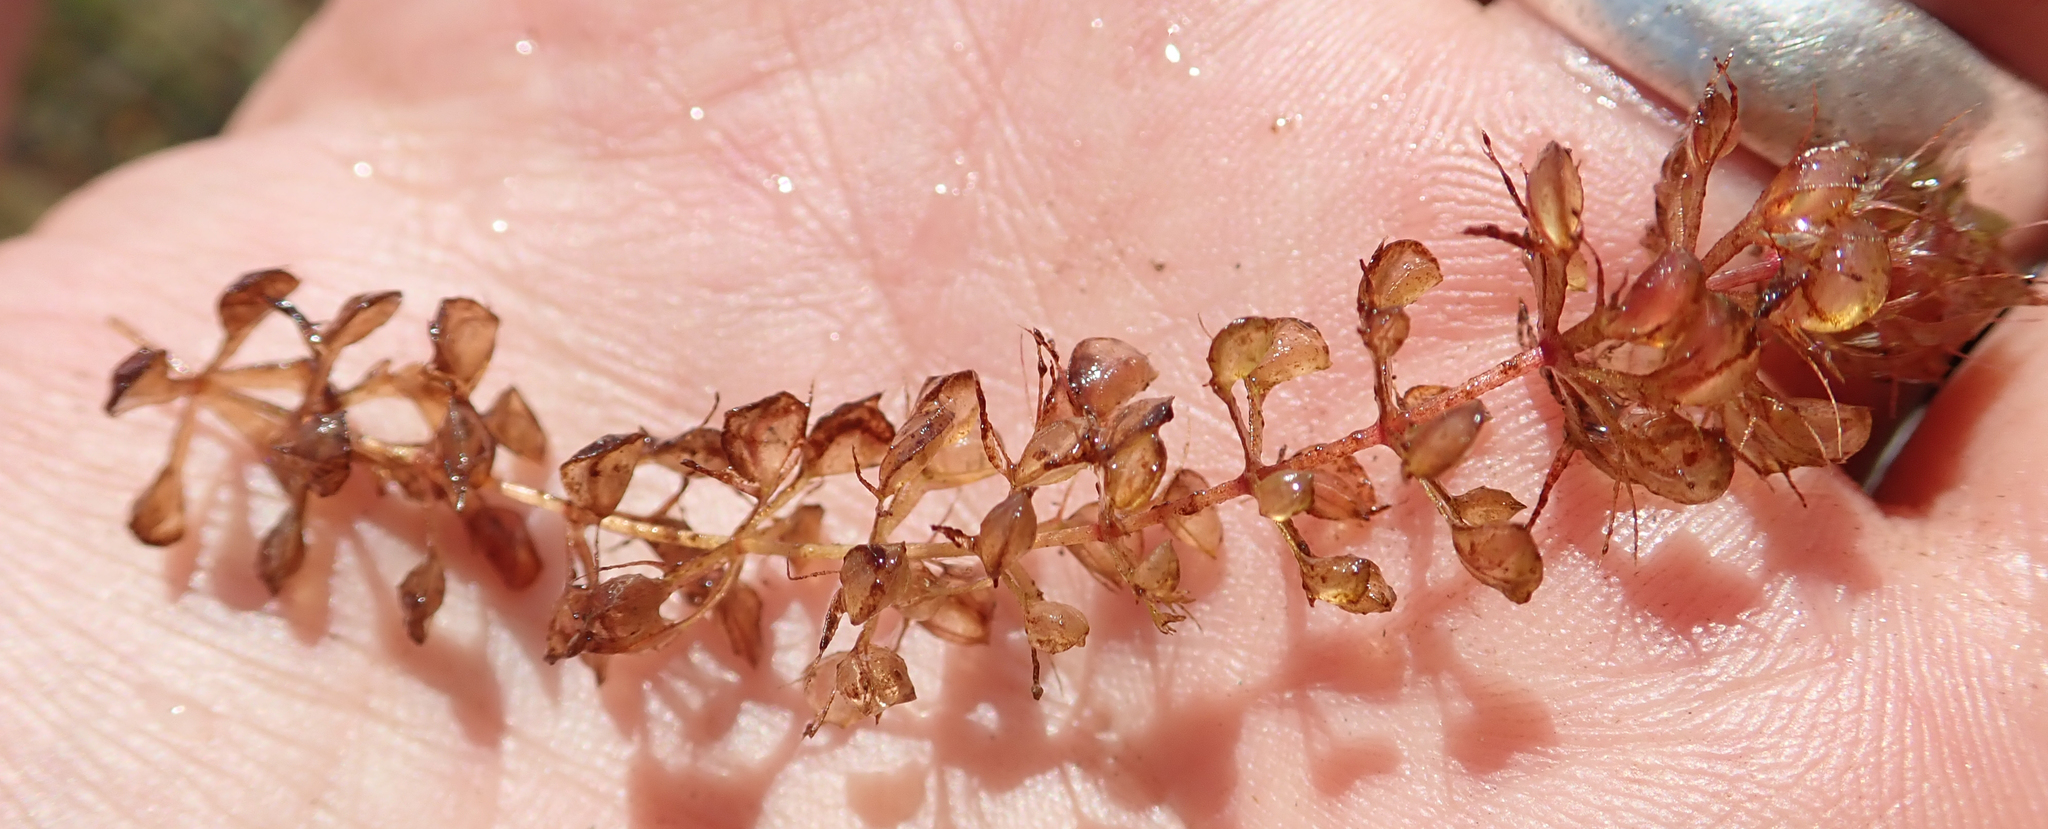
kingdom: Plantae
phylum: Tracheophyta
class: Magnoliopsida
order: Caryophyllales
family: Droseraceae
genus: Aldrovanda
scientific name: Aldrovanda vesiculosa
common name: Waterwheel plant
